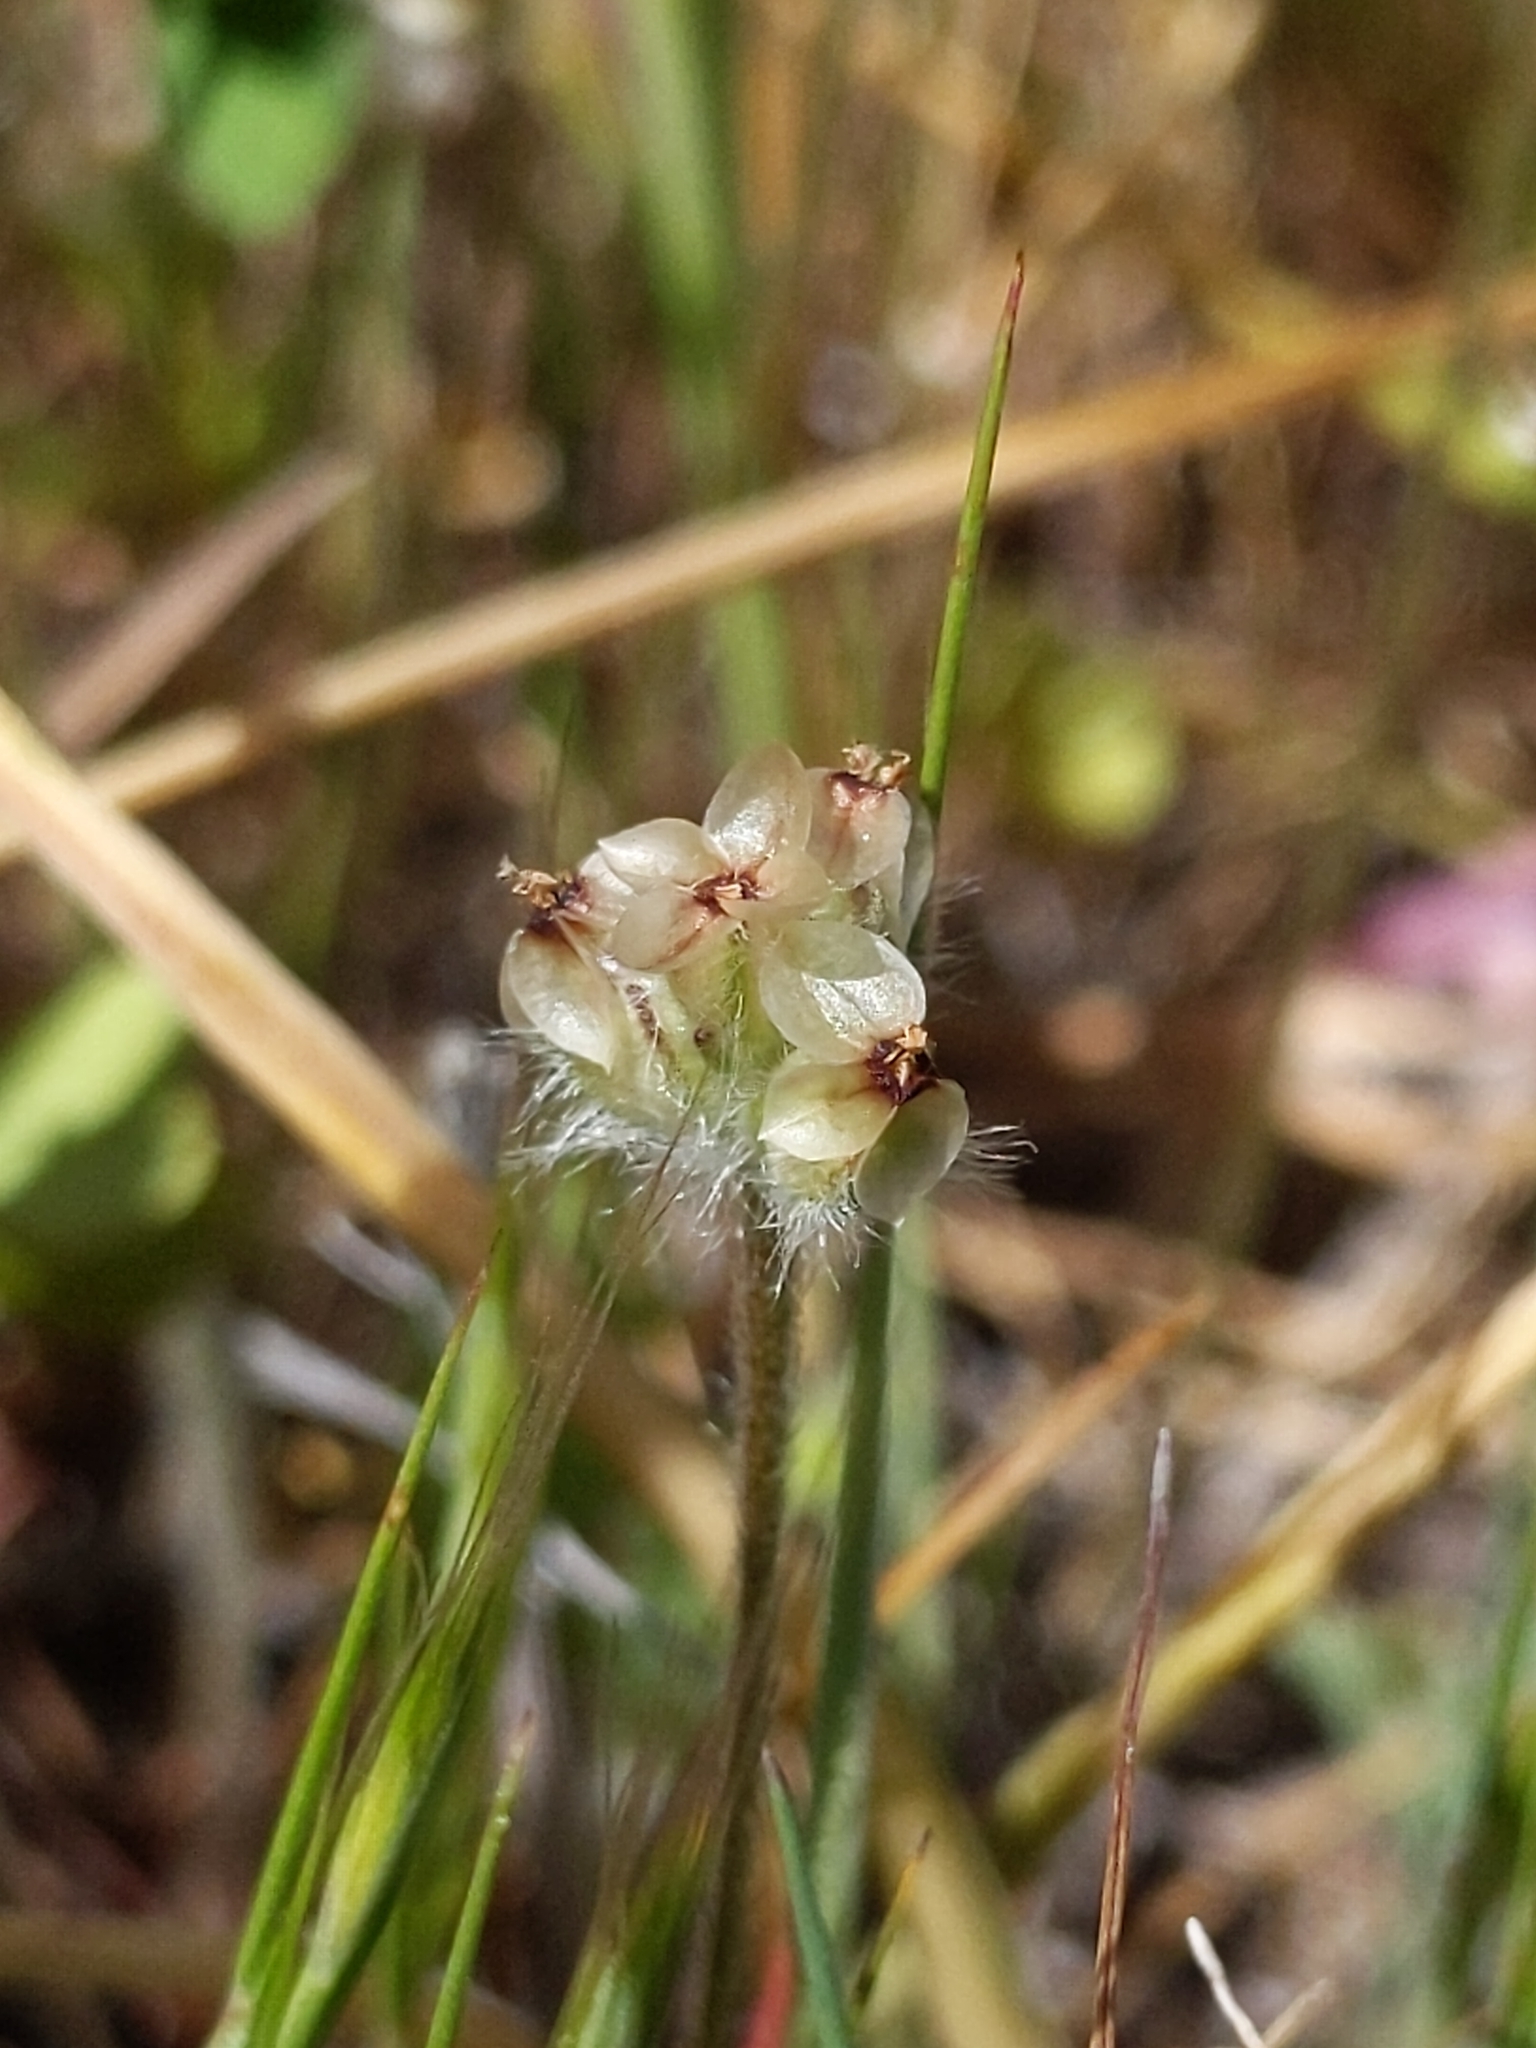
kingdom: Plantae
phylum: Tracheophyta
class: Magnoliopsida
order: Lamiales
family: Plantaginaceae
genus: Plantago
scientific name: Plantago erecta
